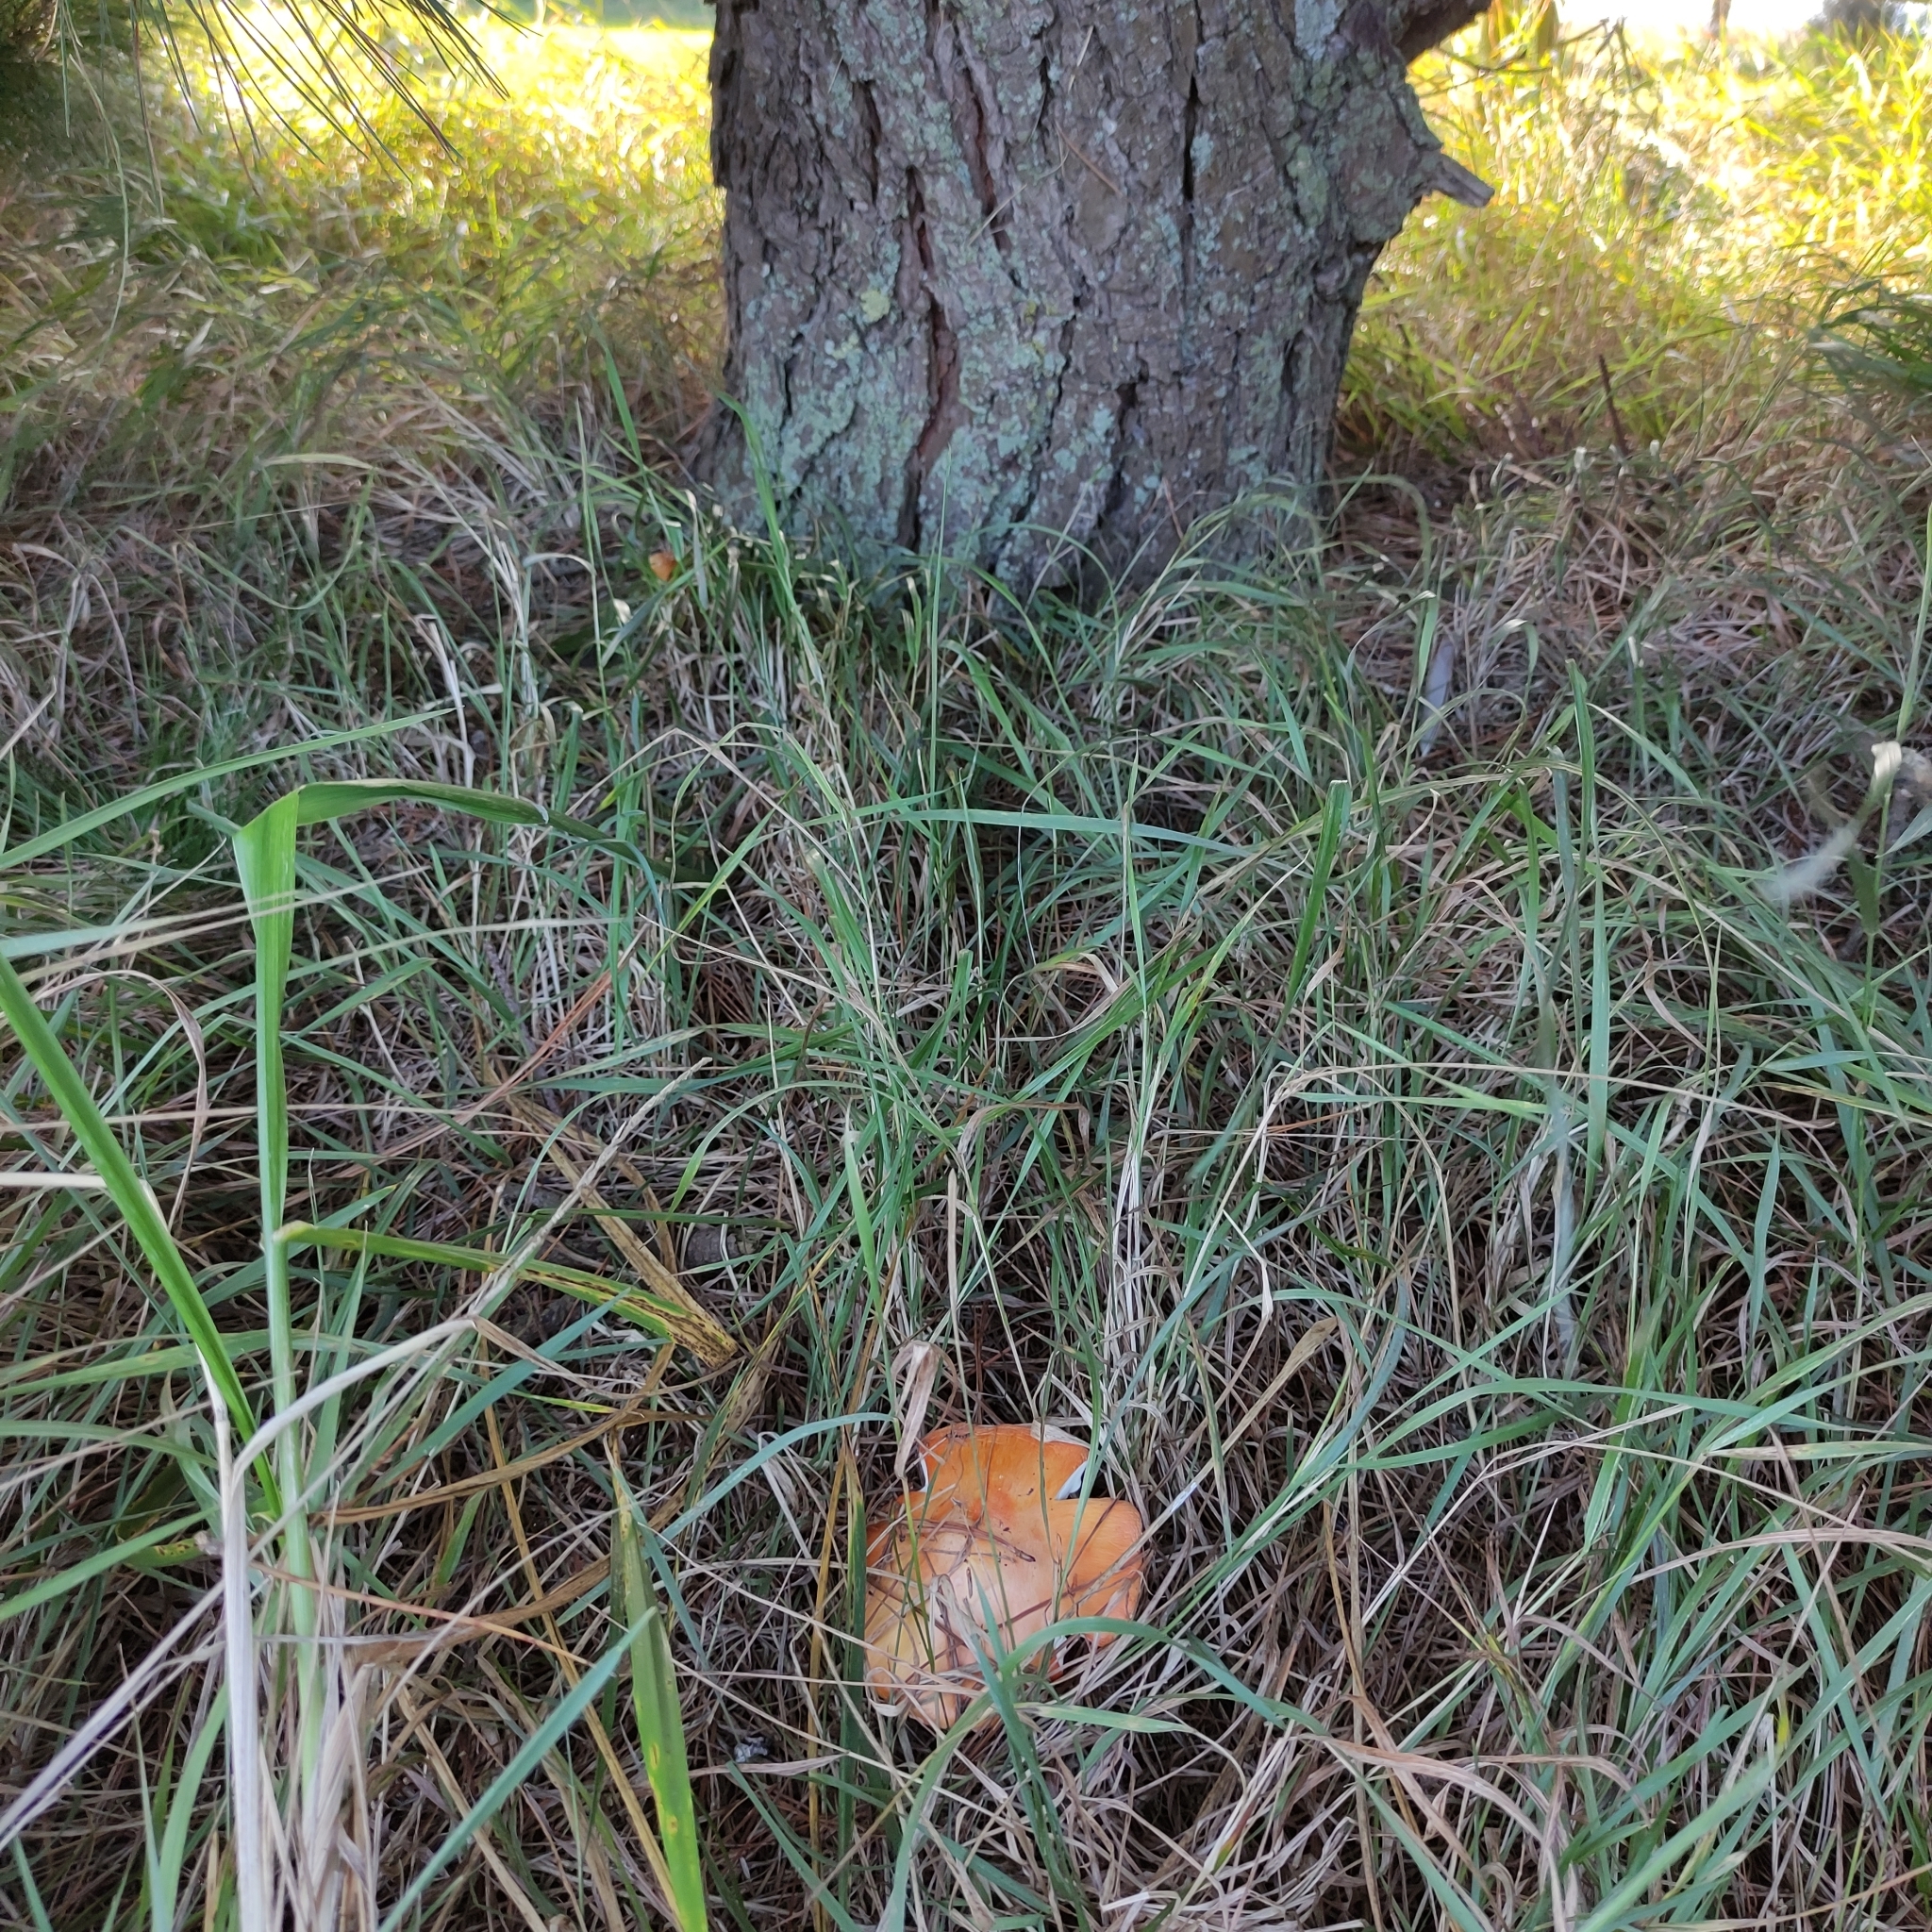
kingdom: Fungi
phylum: Basidiomycota
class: Agaricomycetes
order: Agaricales
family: Amanitaceae
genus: Amanita
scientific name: Amanita muscaria
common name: Fly agaric
